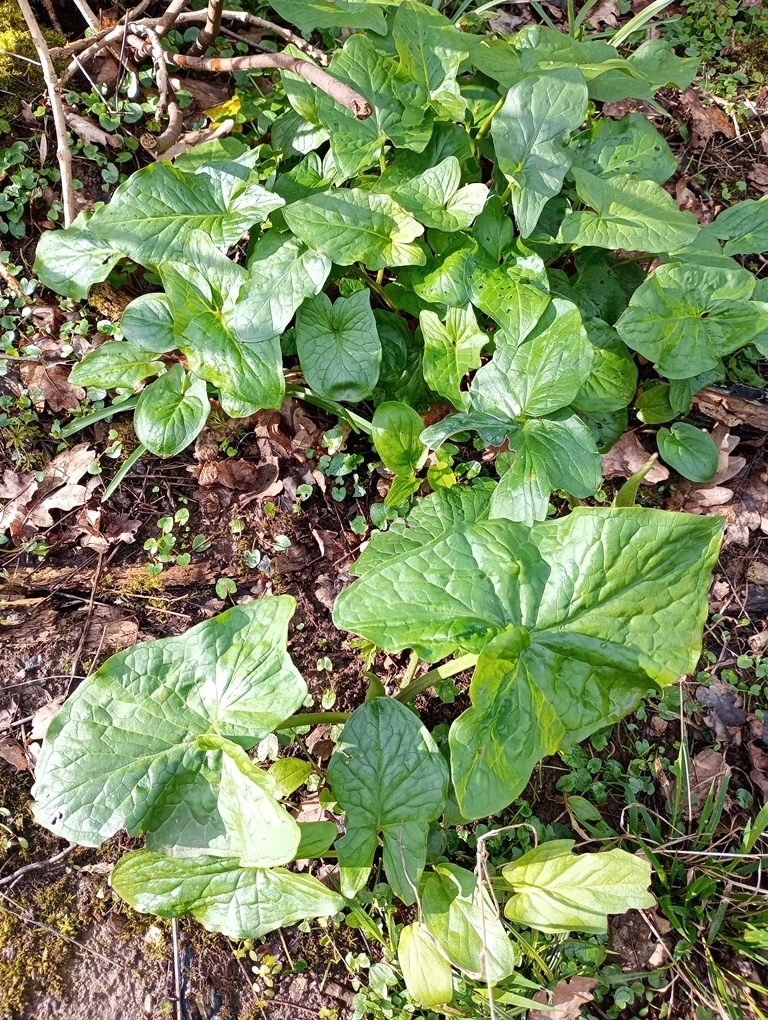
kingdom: Plantae
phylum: Tracheophyta
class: Liliopsida
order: Alismatales
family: Araceae
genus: Arum
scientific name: Arum maculatum
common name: Lords-and-ladies
